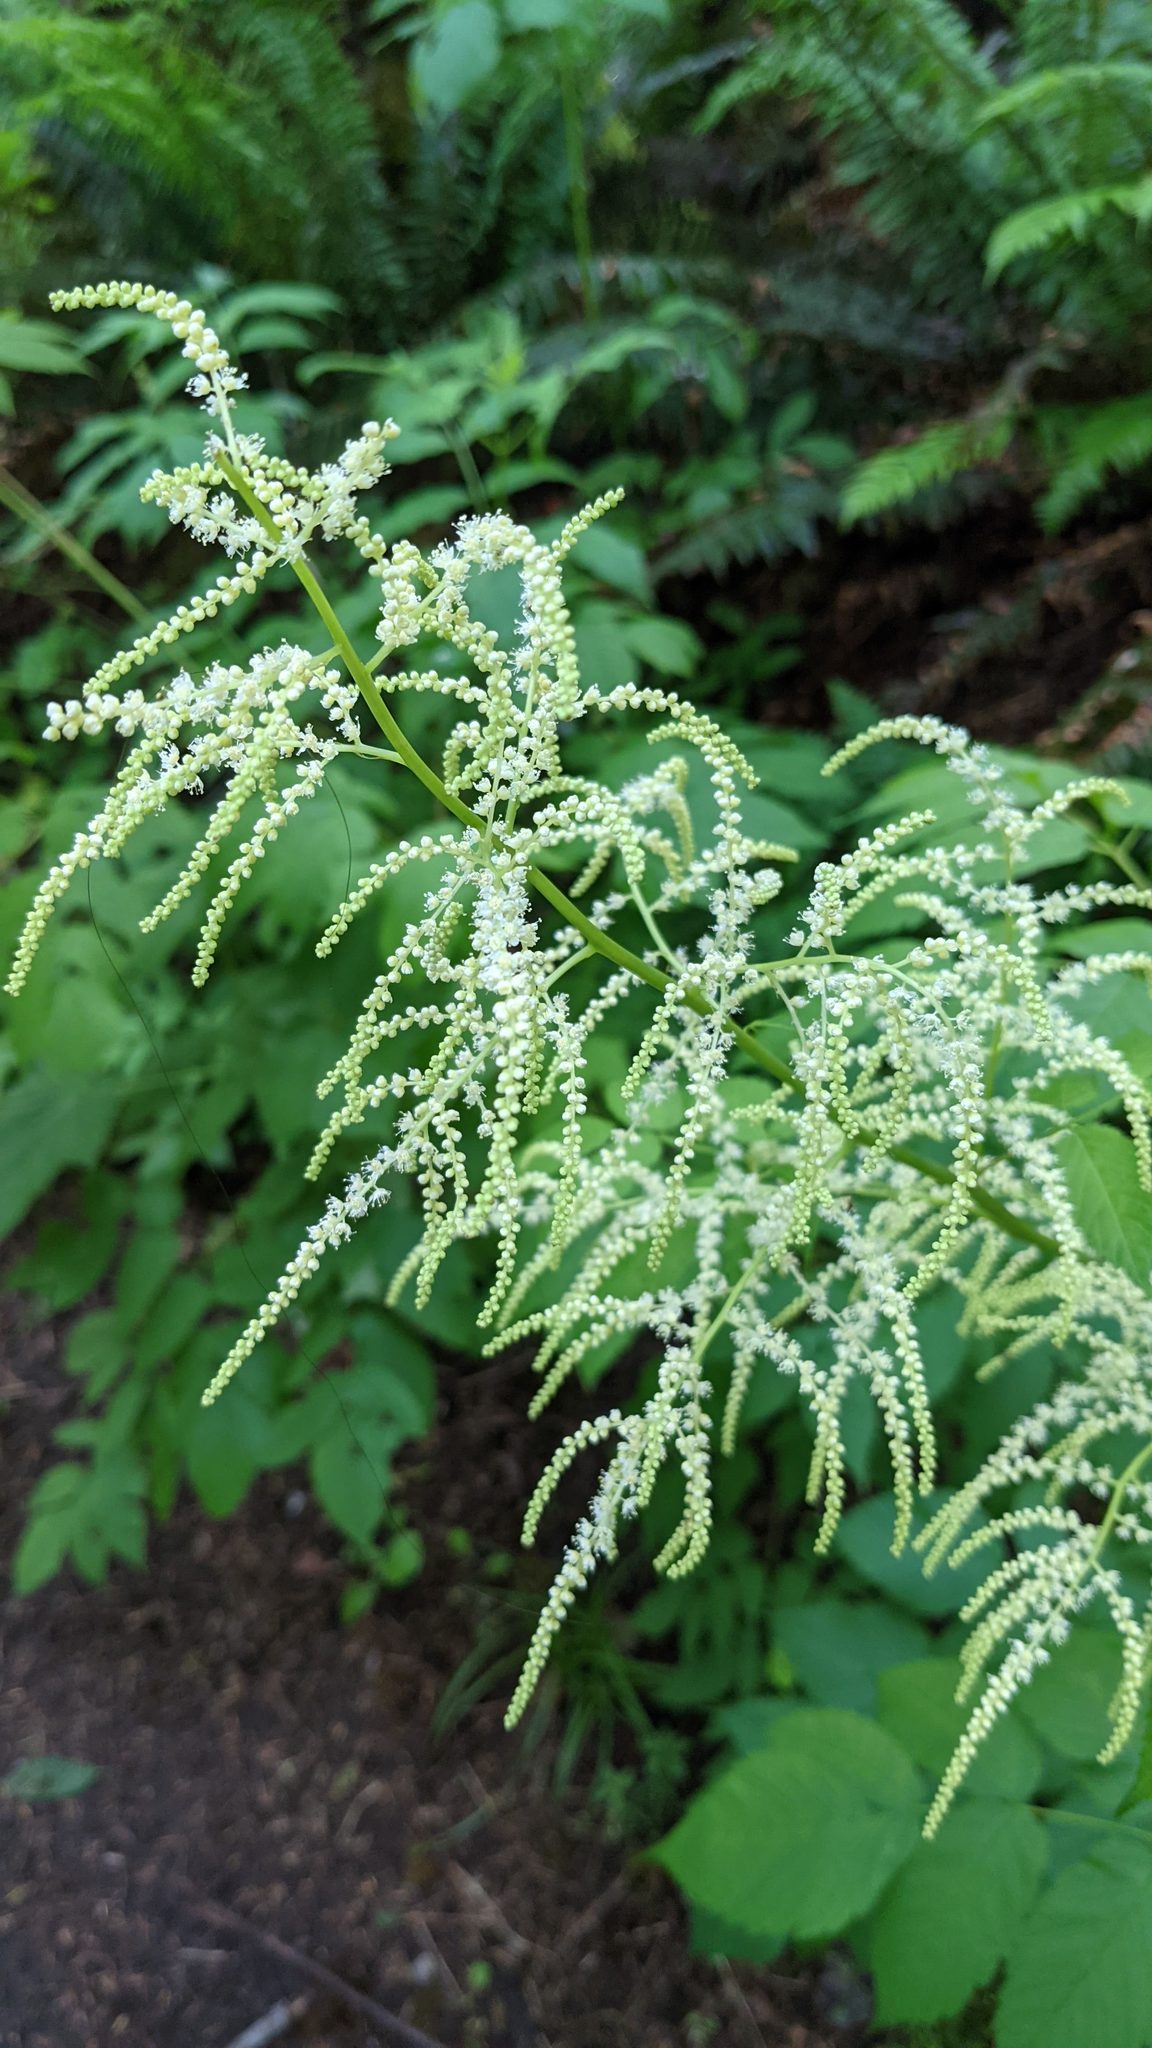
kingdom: Plantae
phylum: Tracheophyta
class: Magnoliopsida
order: Rosales
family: Rosaceae
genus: Aruncus
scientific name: Aruncus dioicus
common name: Buck's-beard
